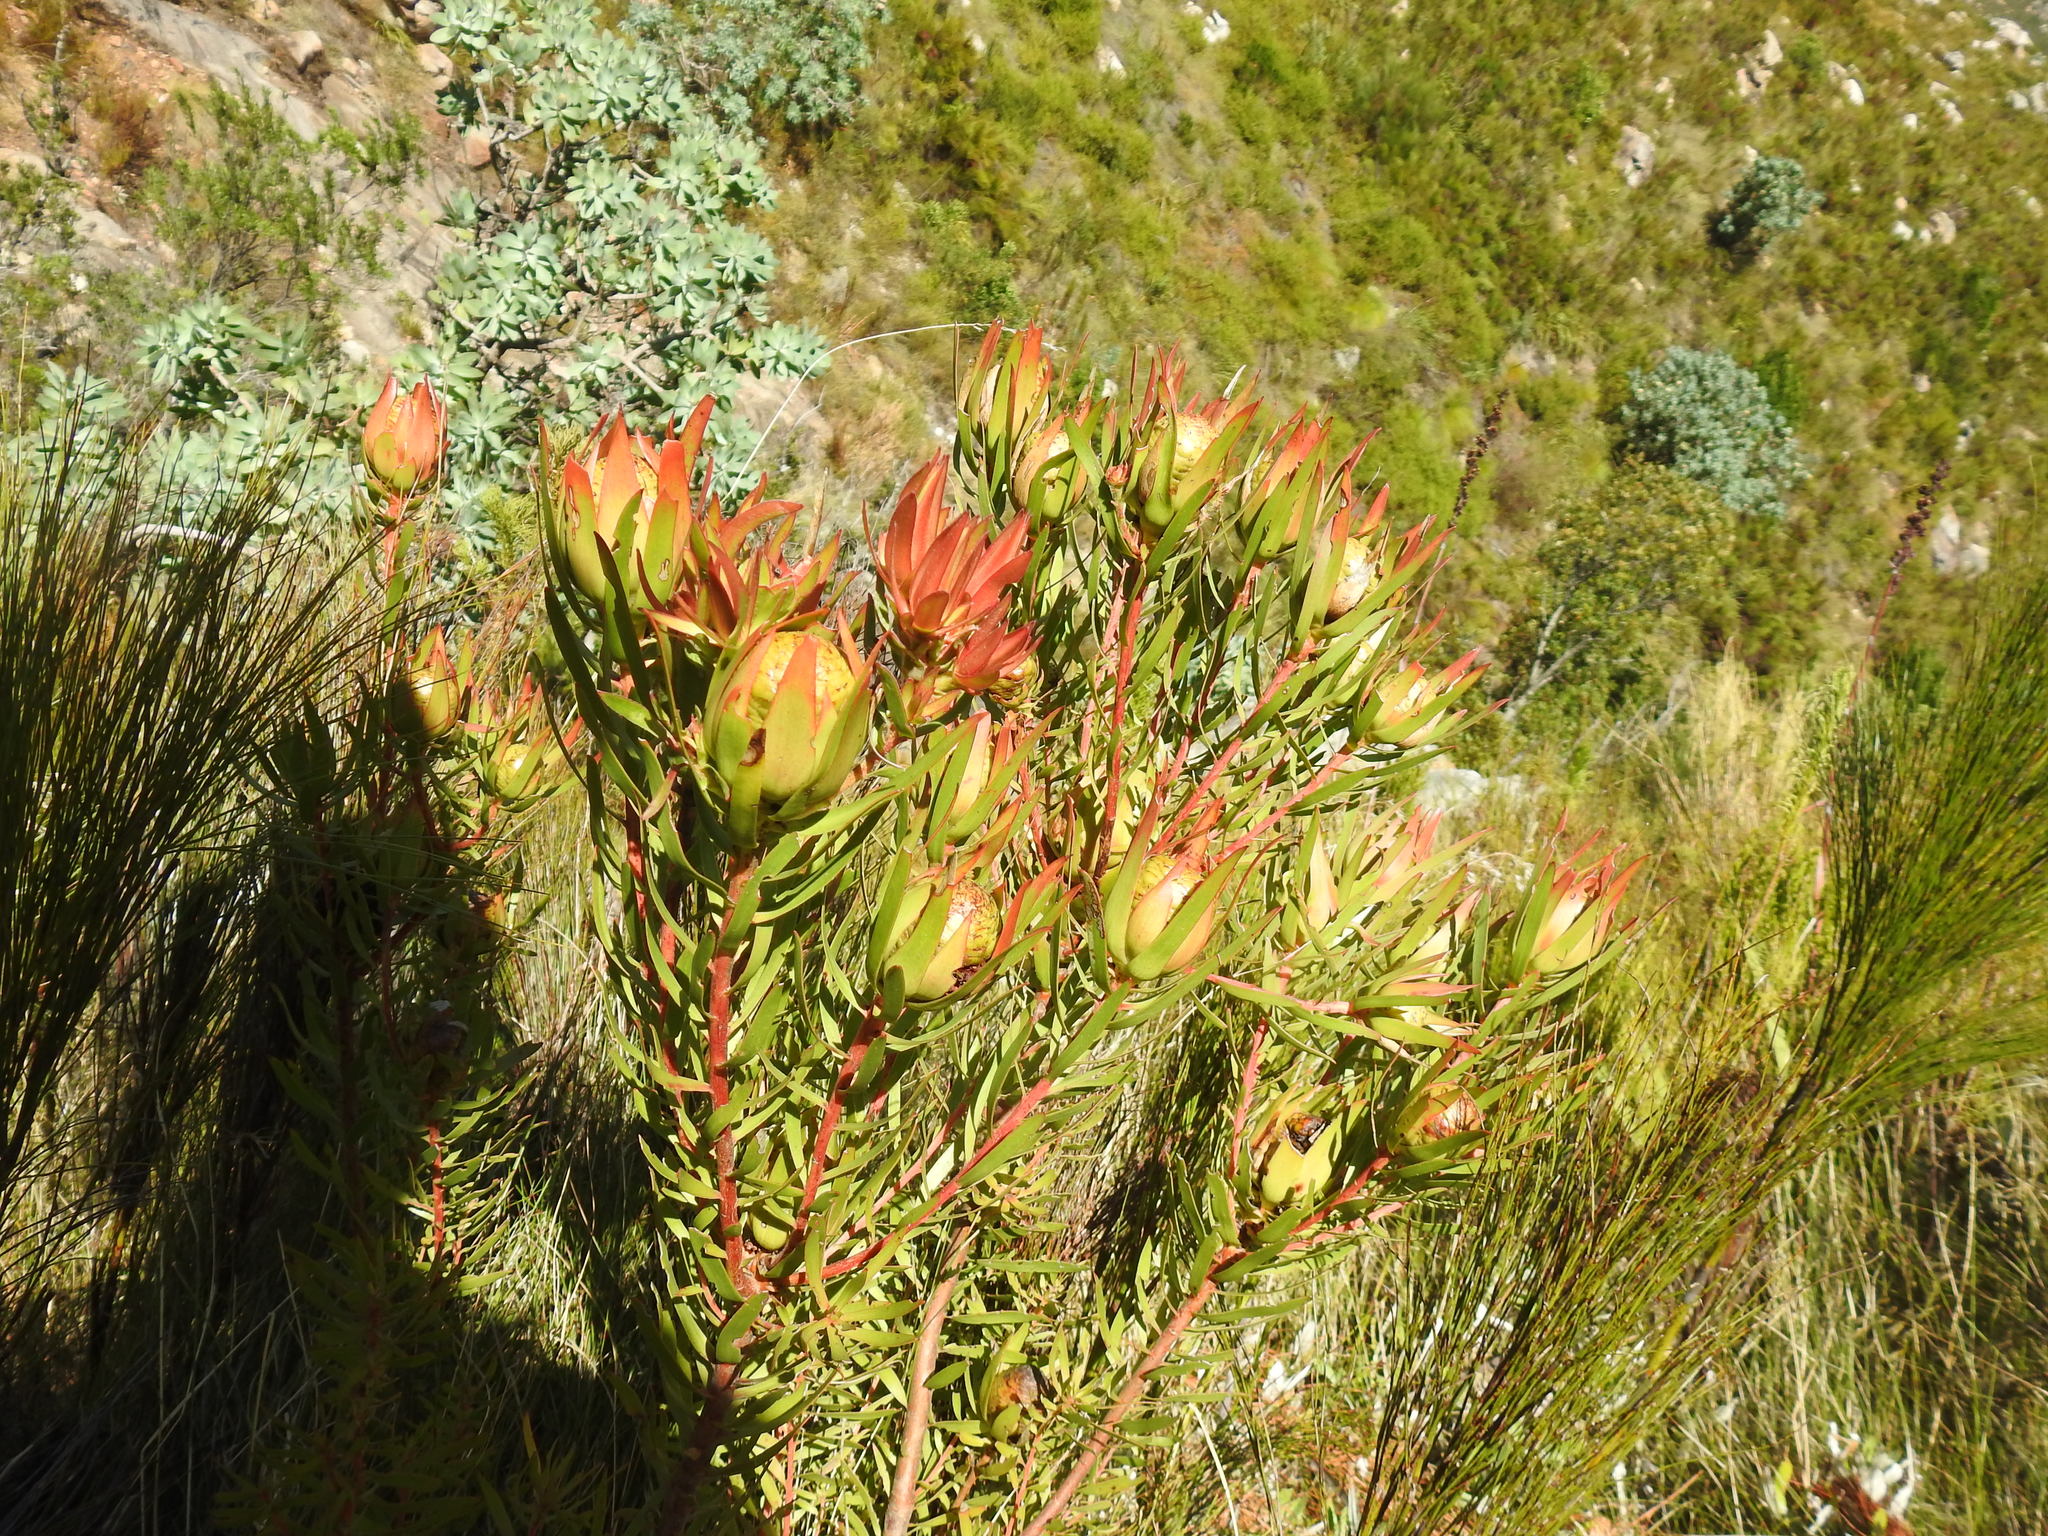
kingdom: Plantae
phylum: Tracheophyta
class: Magnoliopsida
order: Proteales
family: Proteaceae
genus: Leucadendron
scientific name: Leucadendron spissifolium
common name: Spear-leaf conebush
